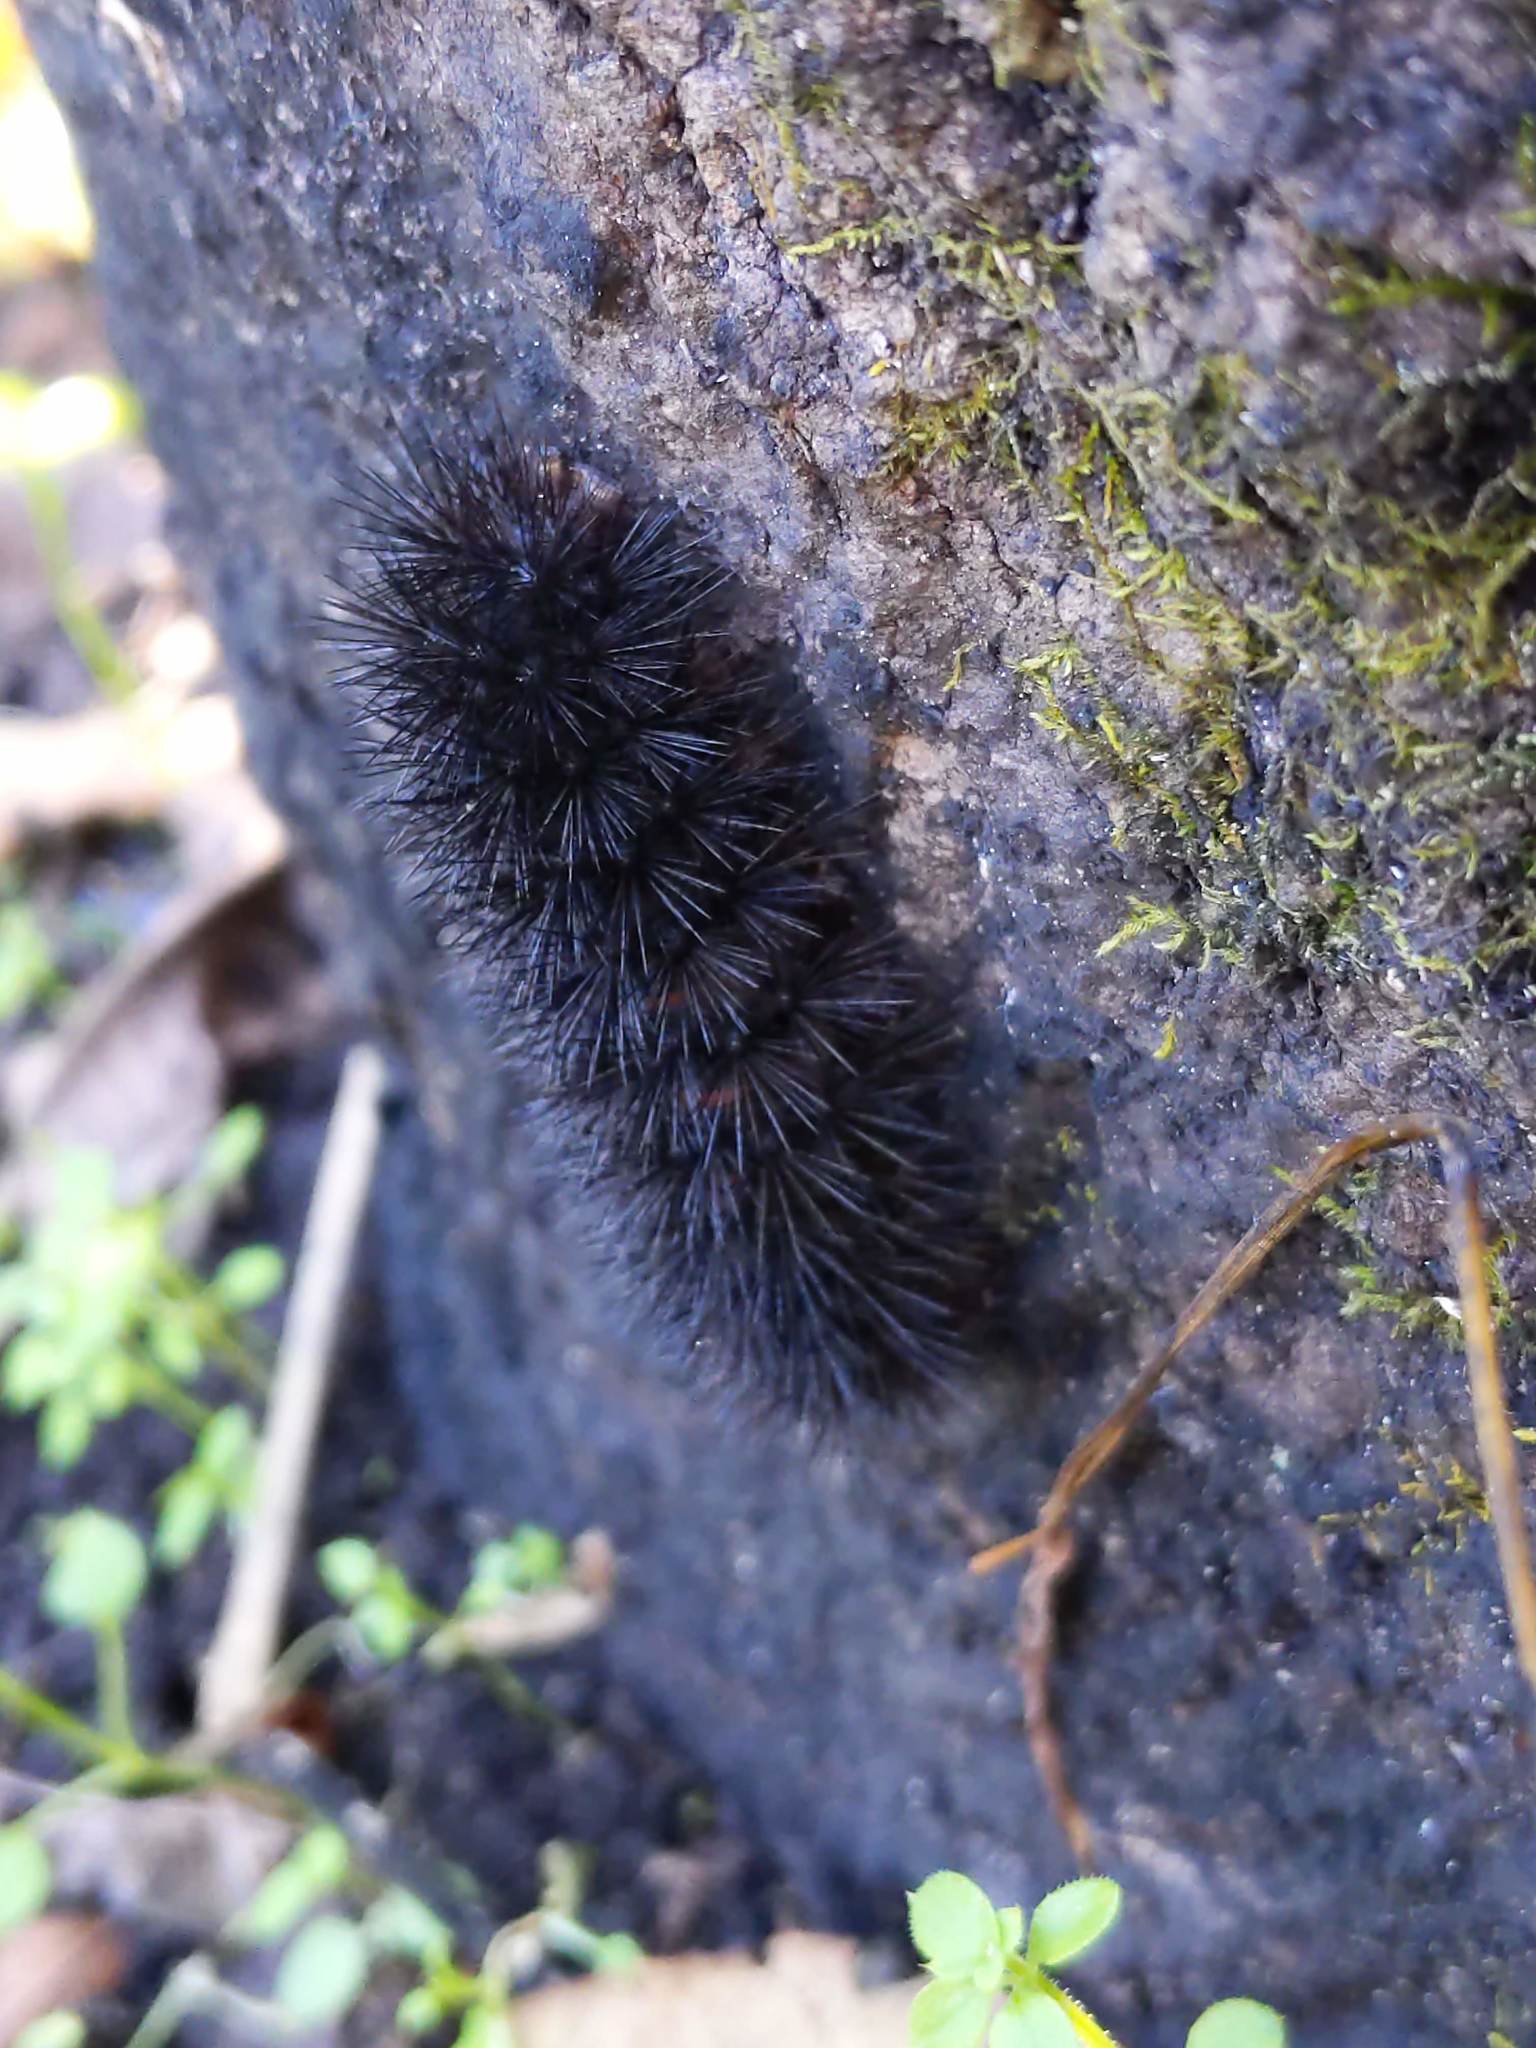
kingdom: Animalia
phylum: Arthropoda
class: Insecta
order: Lepidoptera
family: Erebidae
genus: Hypercompe
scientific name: Hypercompe scribonia
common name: Giant leopard moth
